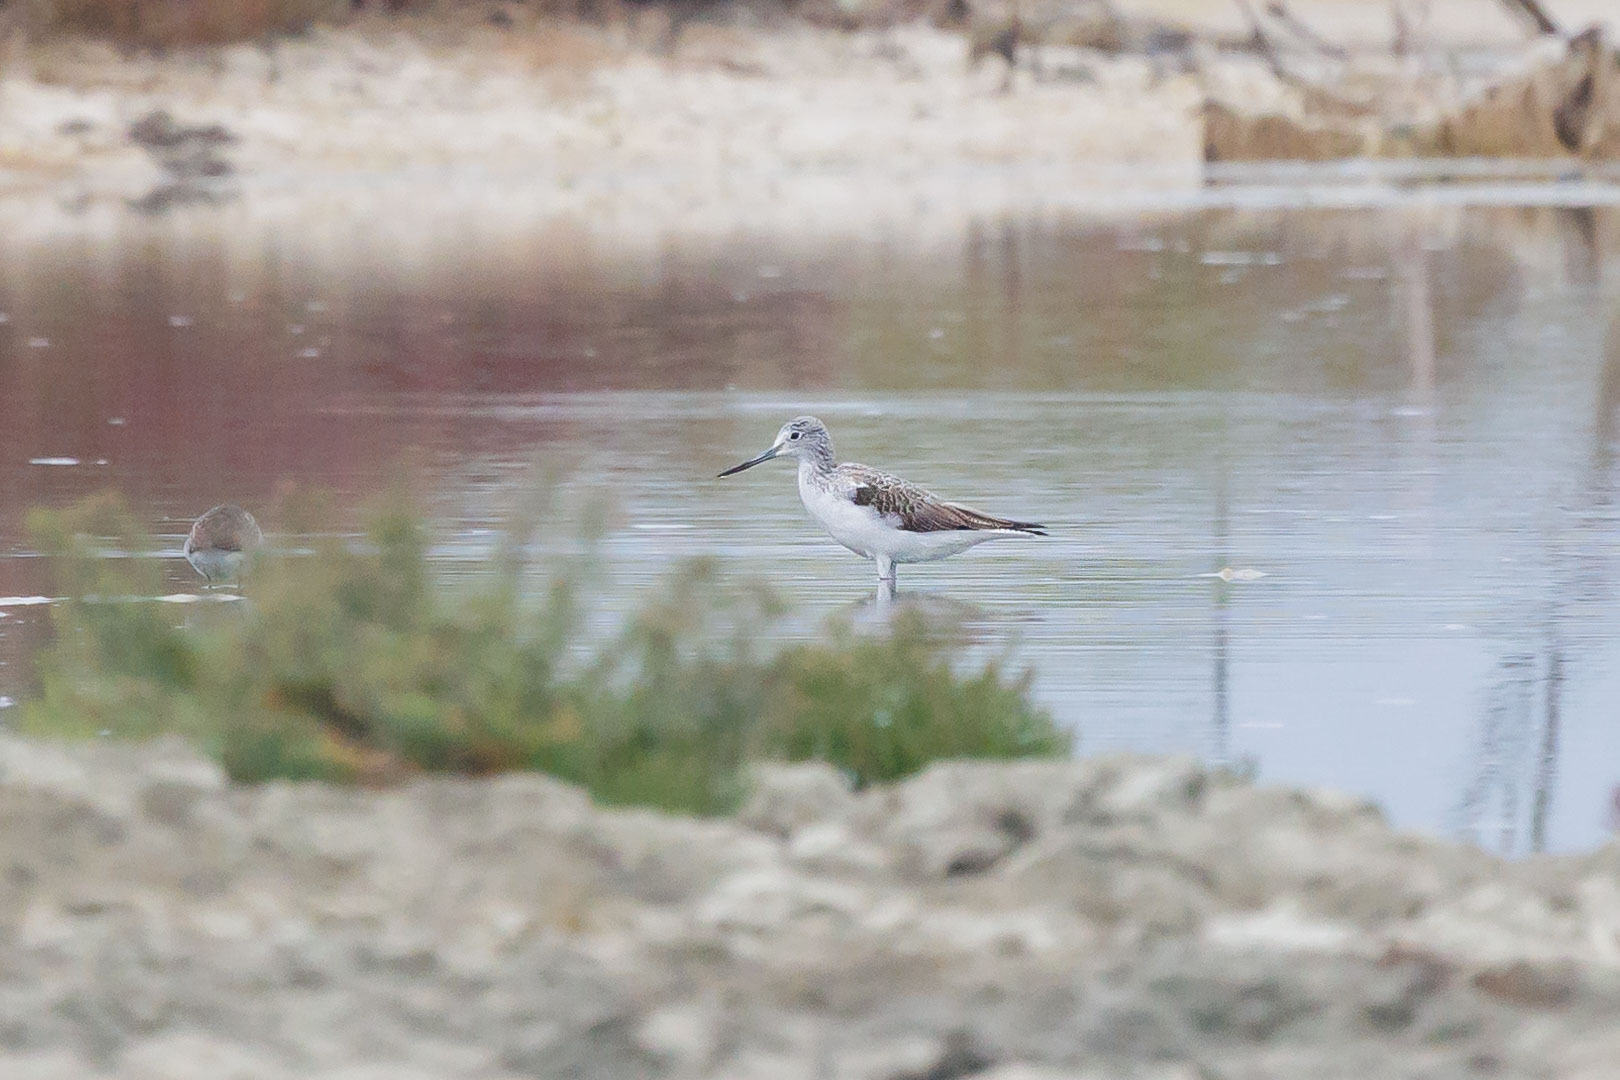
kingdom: Animalia
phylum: Chordata
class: Aves
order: Charadriiformes
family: Scolopacidae
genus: Tringa
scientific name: Tringa nebularia
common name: Common greenshank
